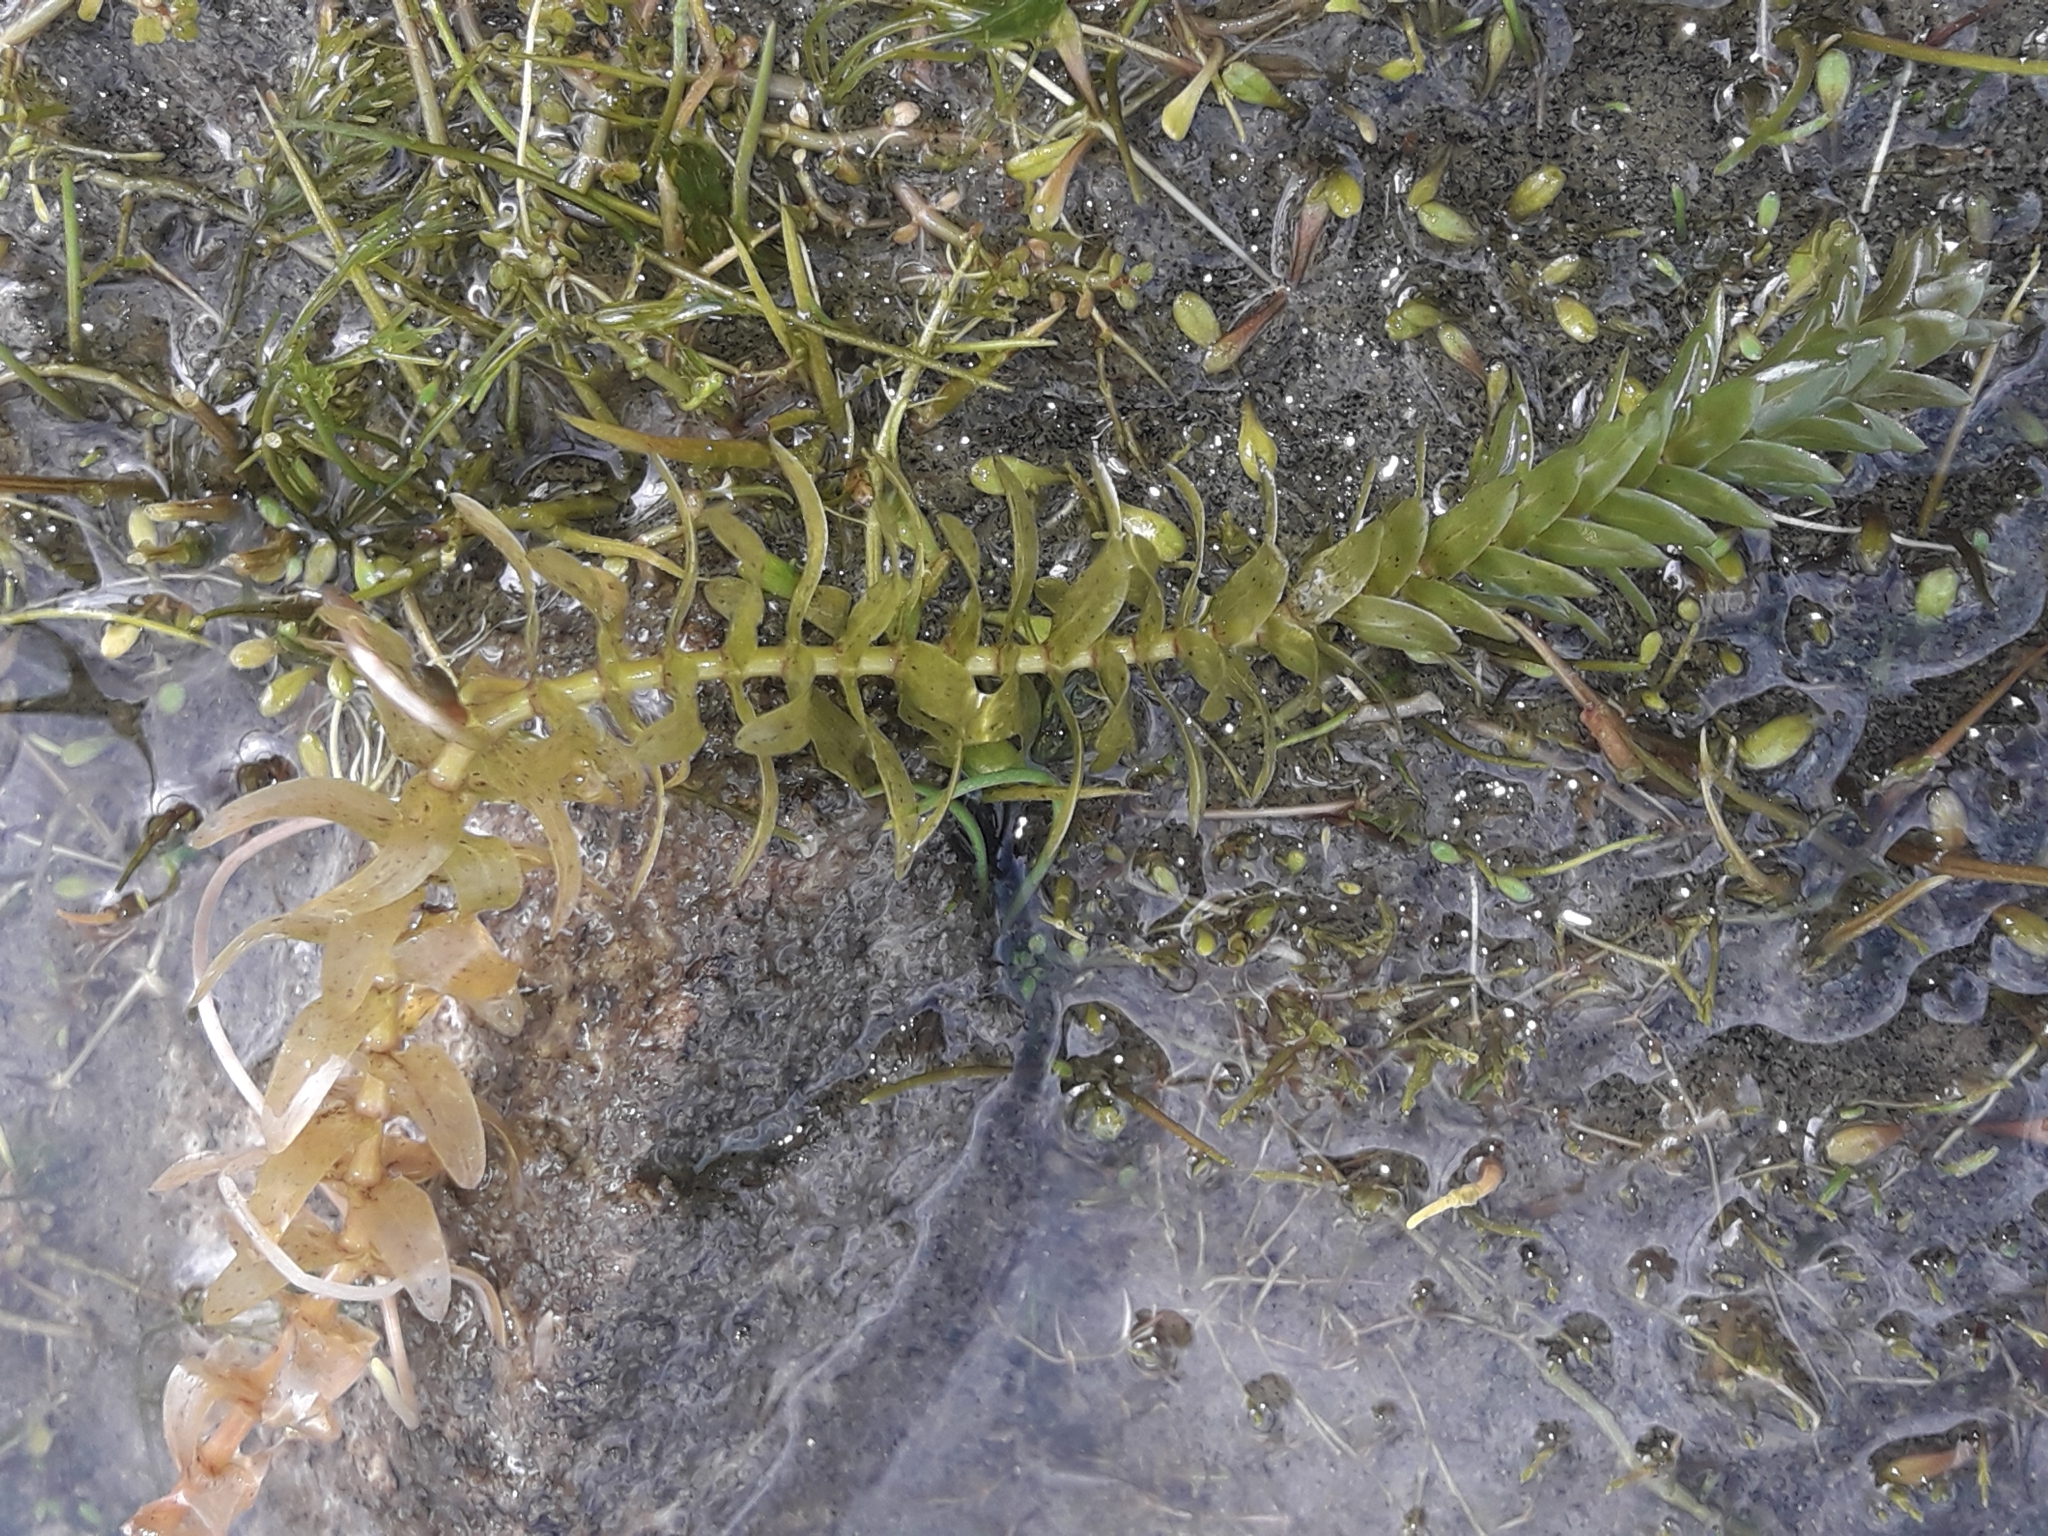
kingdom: Plantae
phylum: Tracheophyta
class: Liliopsida
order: Alismatales
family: Hydrocharitaceae
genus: Elodea
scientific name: Elodea canadensis
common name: Canadian waterweed
